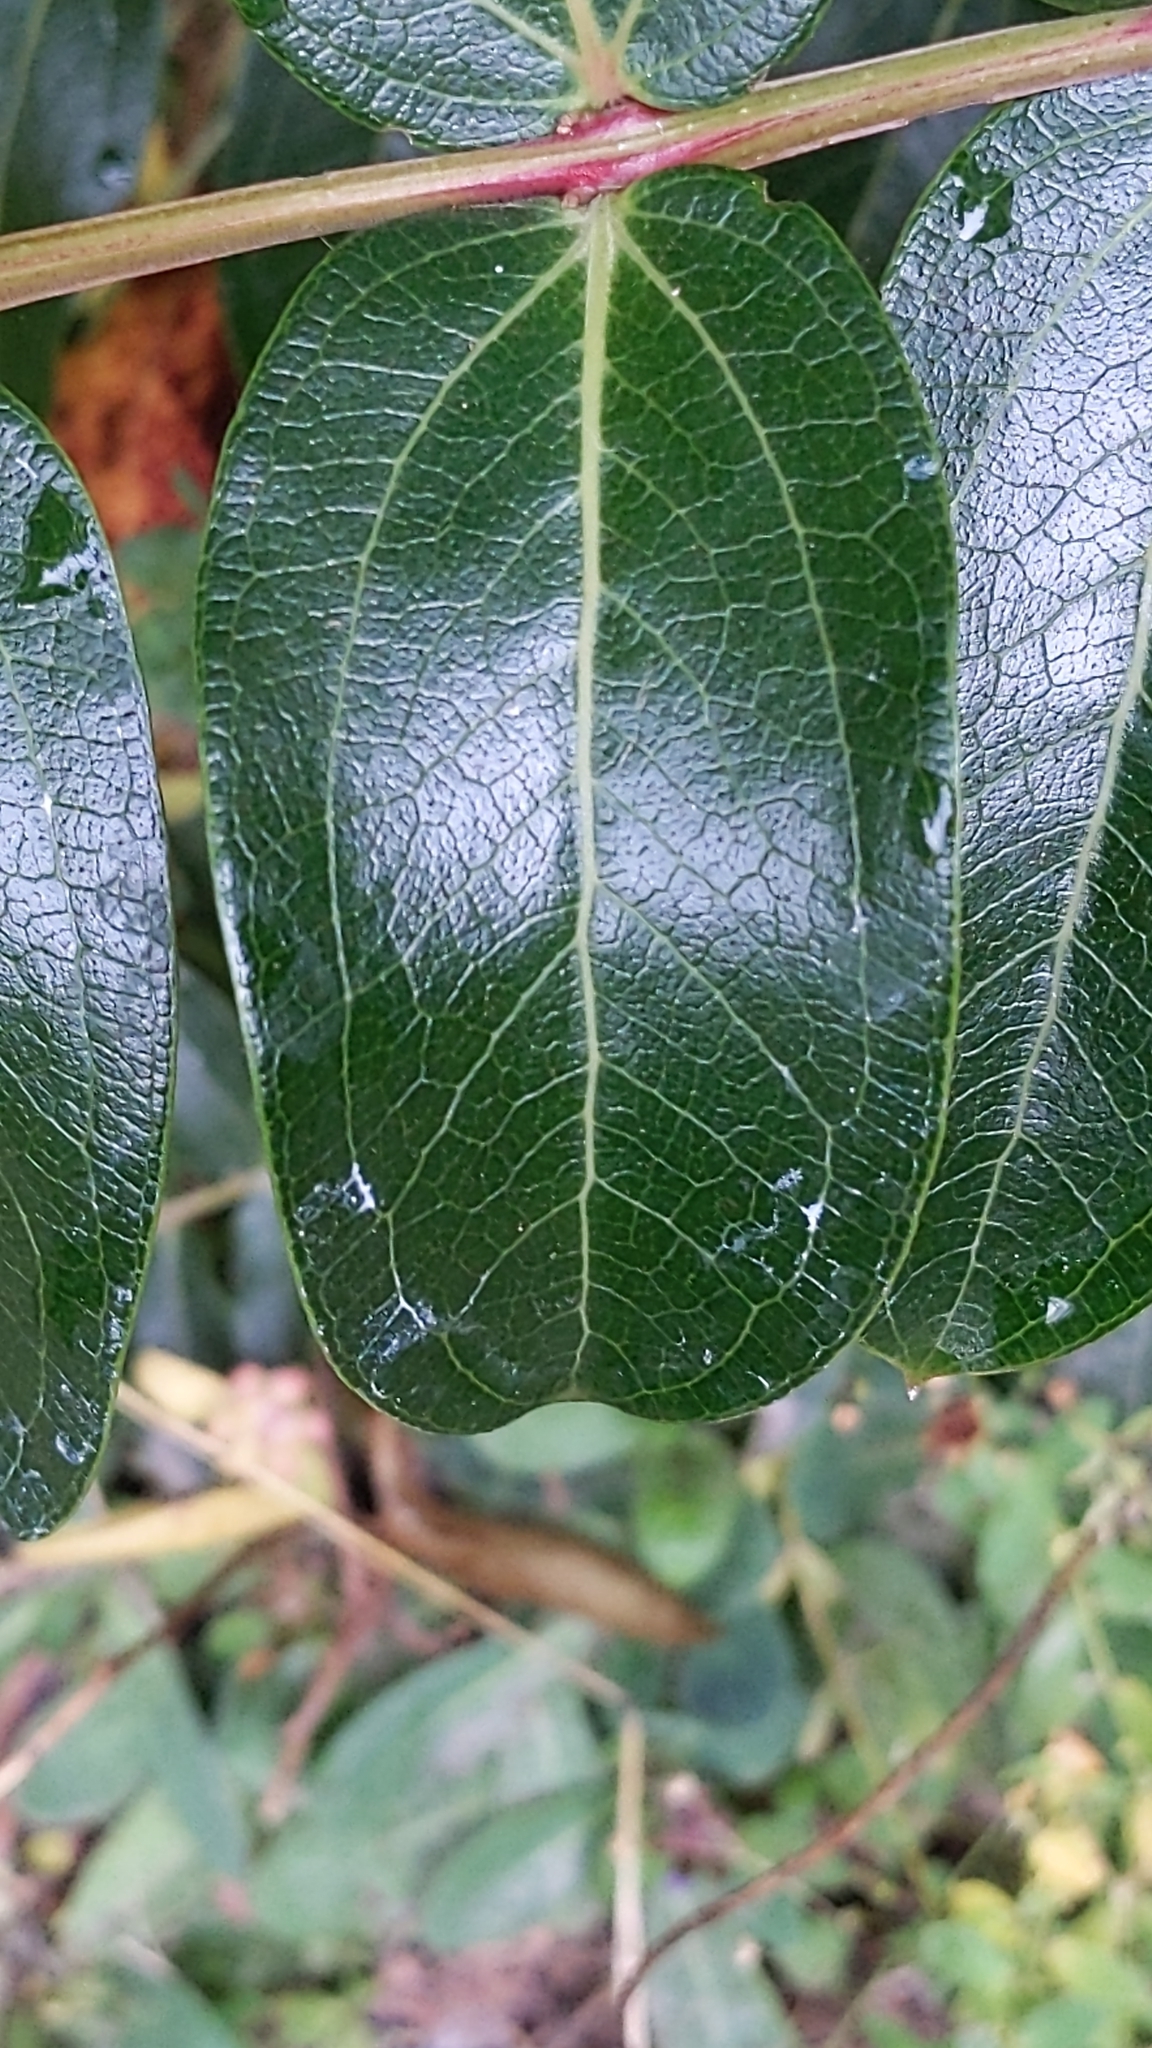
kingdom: Plantae
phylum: Tracheophyta
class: Magnoliopsida
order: Cucurbitales
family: Coriariaceae
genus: Coriaria
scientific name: Coriaria sarmentosa
